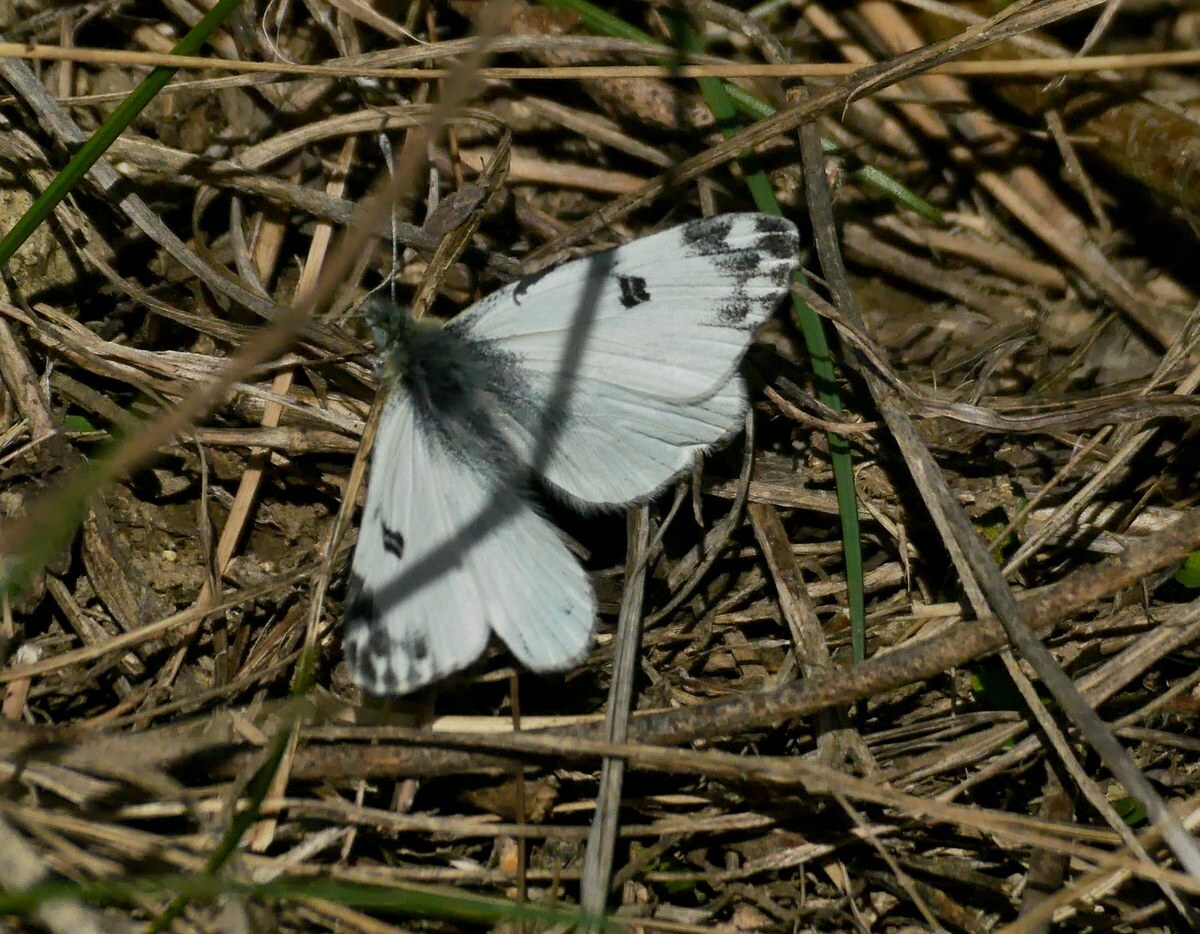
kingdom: Animalia
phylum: Arthropoda
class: Insecta
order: Lepidoptera
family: Pieridae
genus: Pontia
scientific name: Pontia edusa
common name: Eastern bath white
